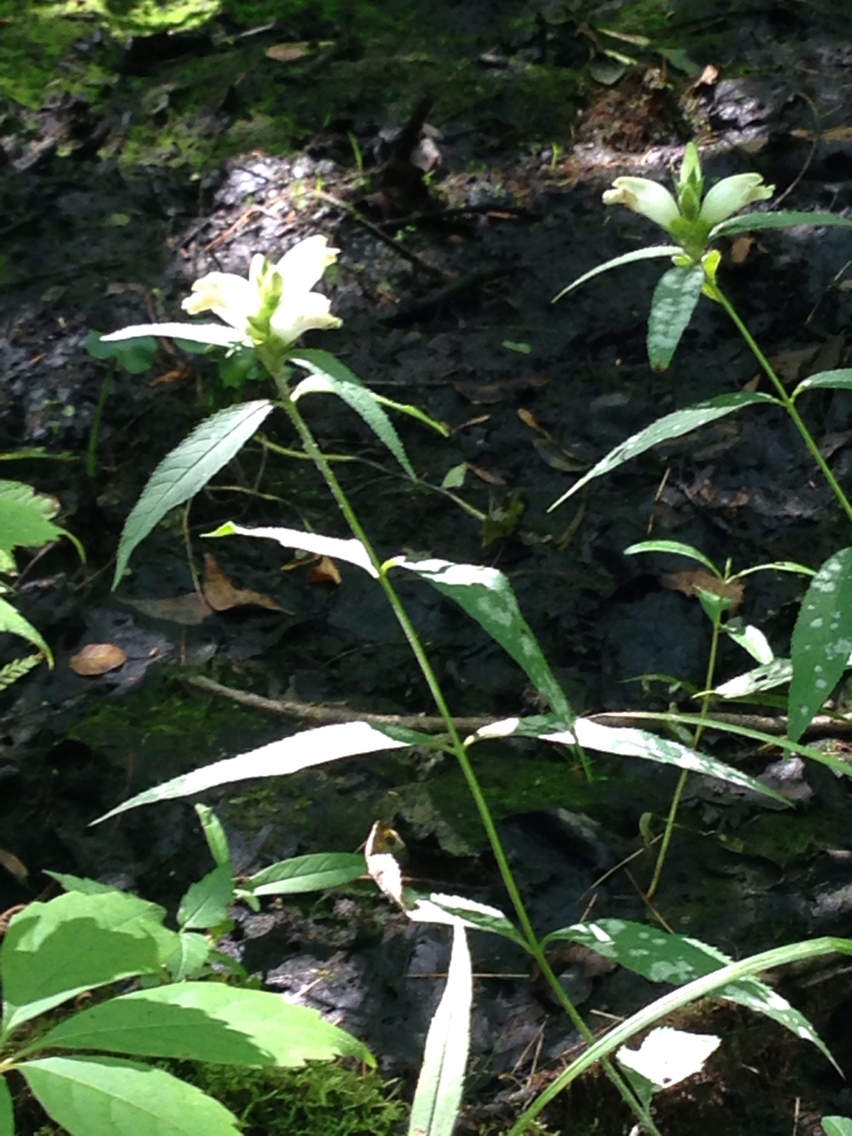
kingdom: Plantae
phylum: Tracheophyta
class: Magnoliopsida
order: Lamiales
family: Plantaginaceae
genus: Chelone
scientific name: Chelone glabra
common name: Snakehead
